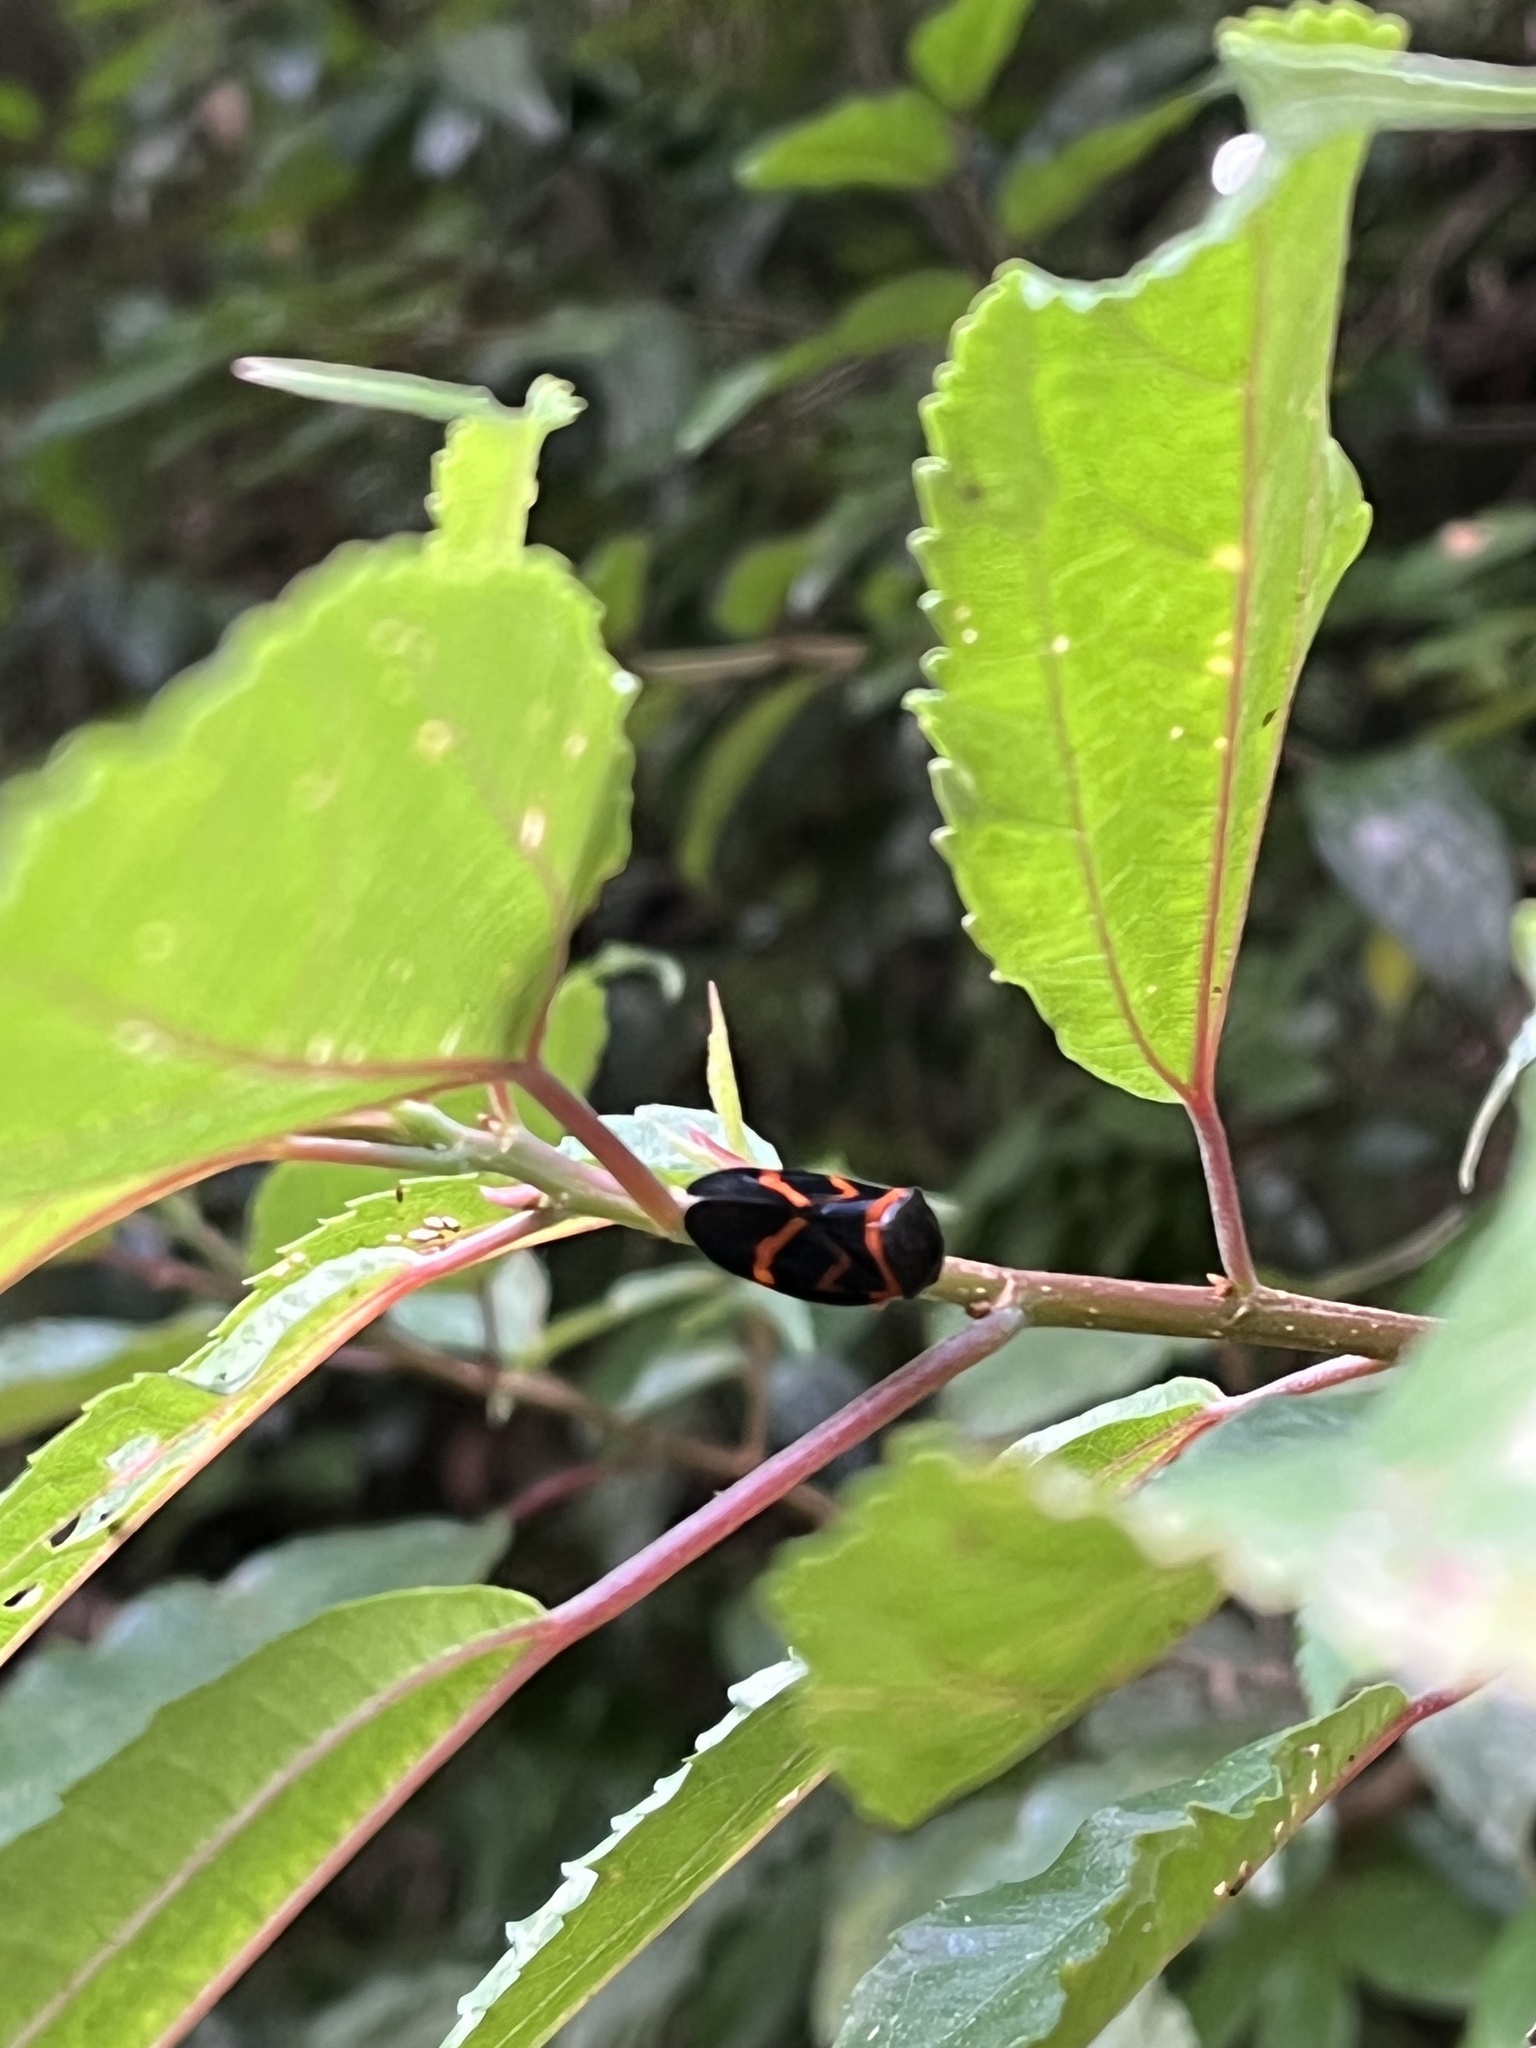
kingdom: Animalia
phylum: Arthropoda
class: Insecta
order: Hemiptera
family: Cercopidae
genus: Okiscarta
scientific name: Okiscarta uchidae
